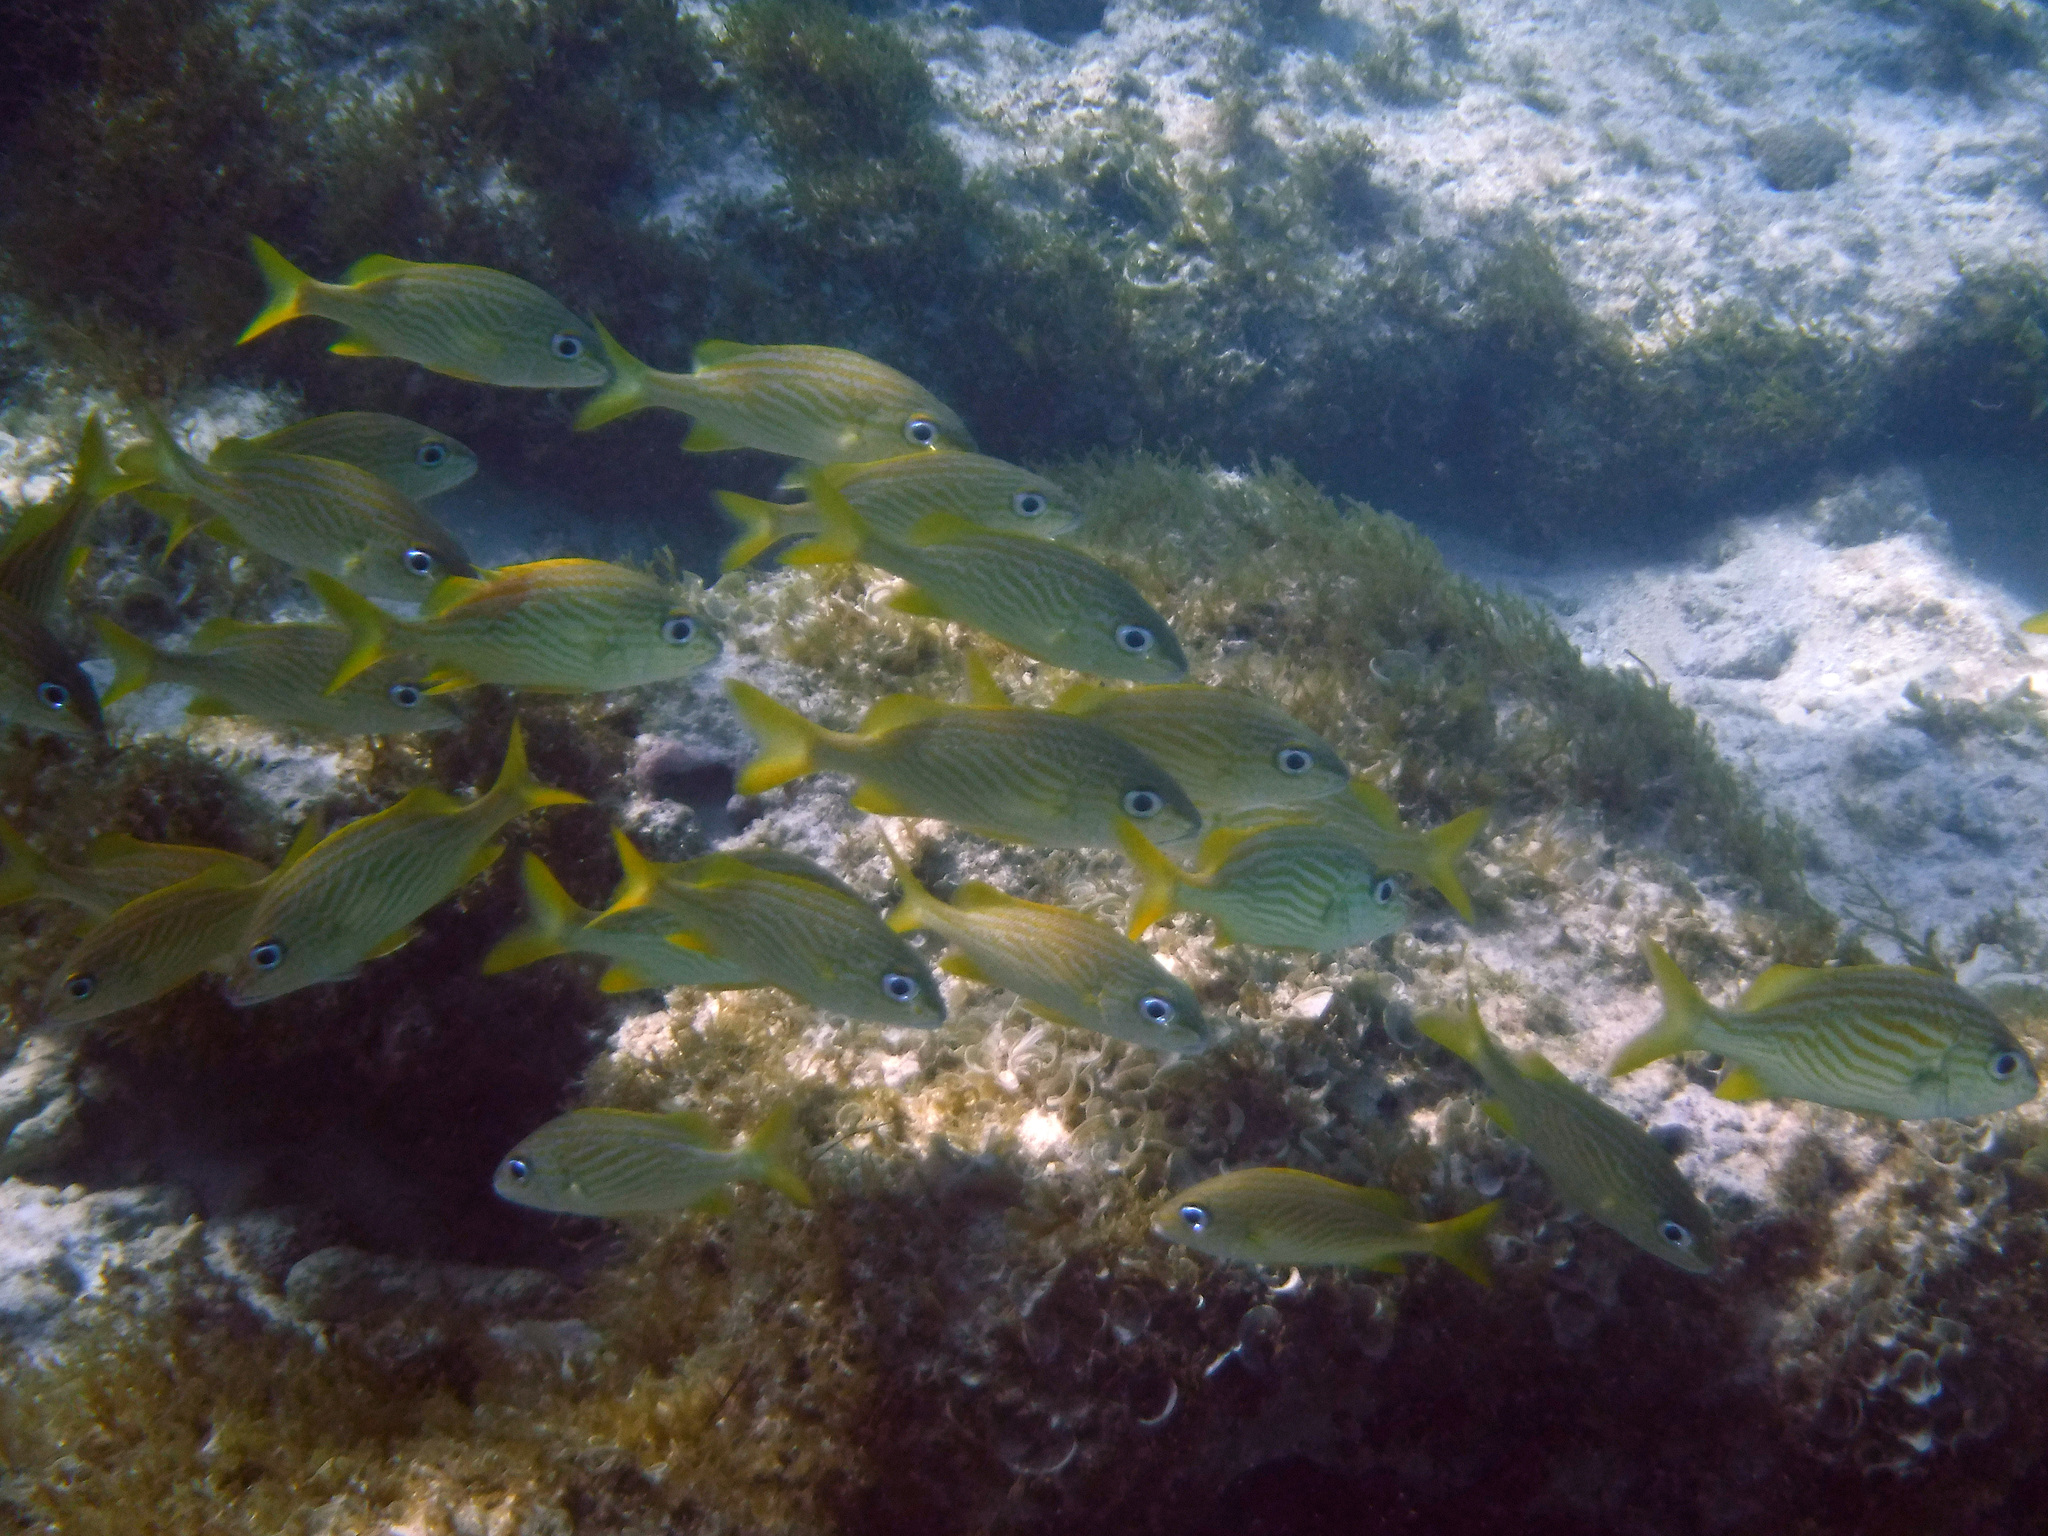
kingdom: Animalia
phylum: Chordata
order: Perciformes
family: Haemulidae
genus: Haemulon
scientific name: Haemulon flavolineatum
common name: French grunt
